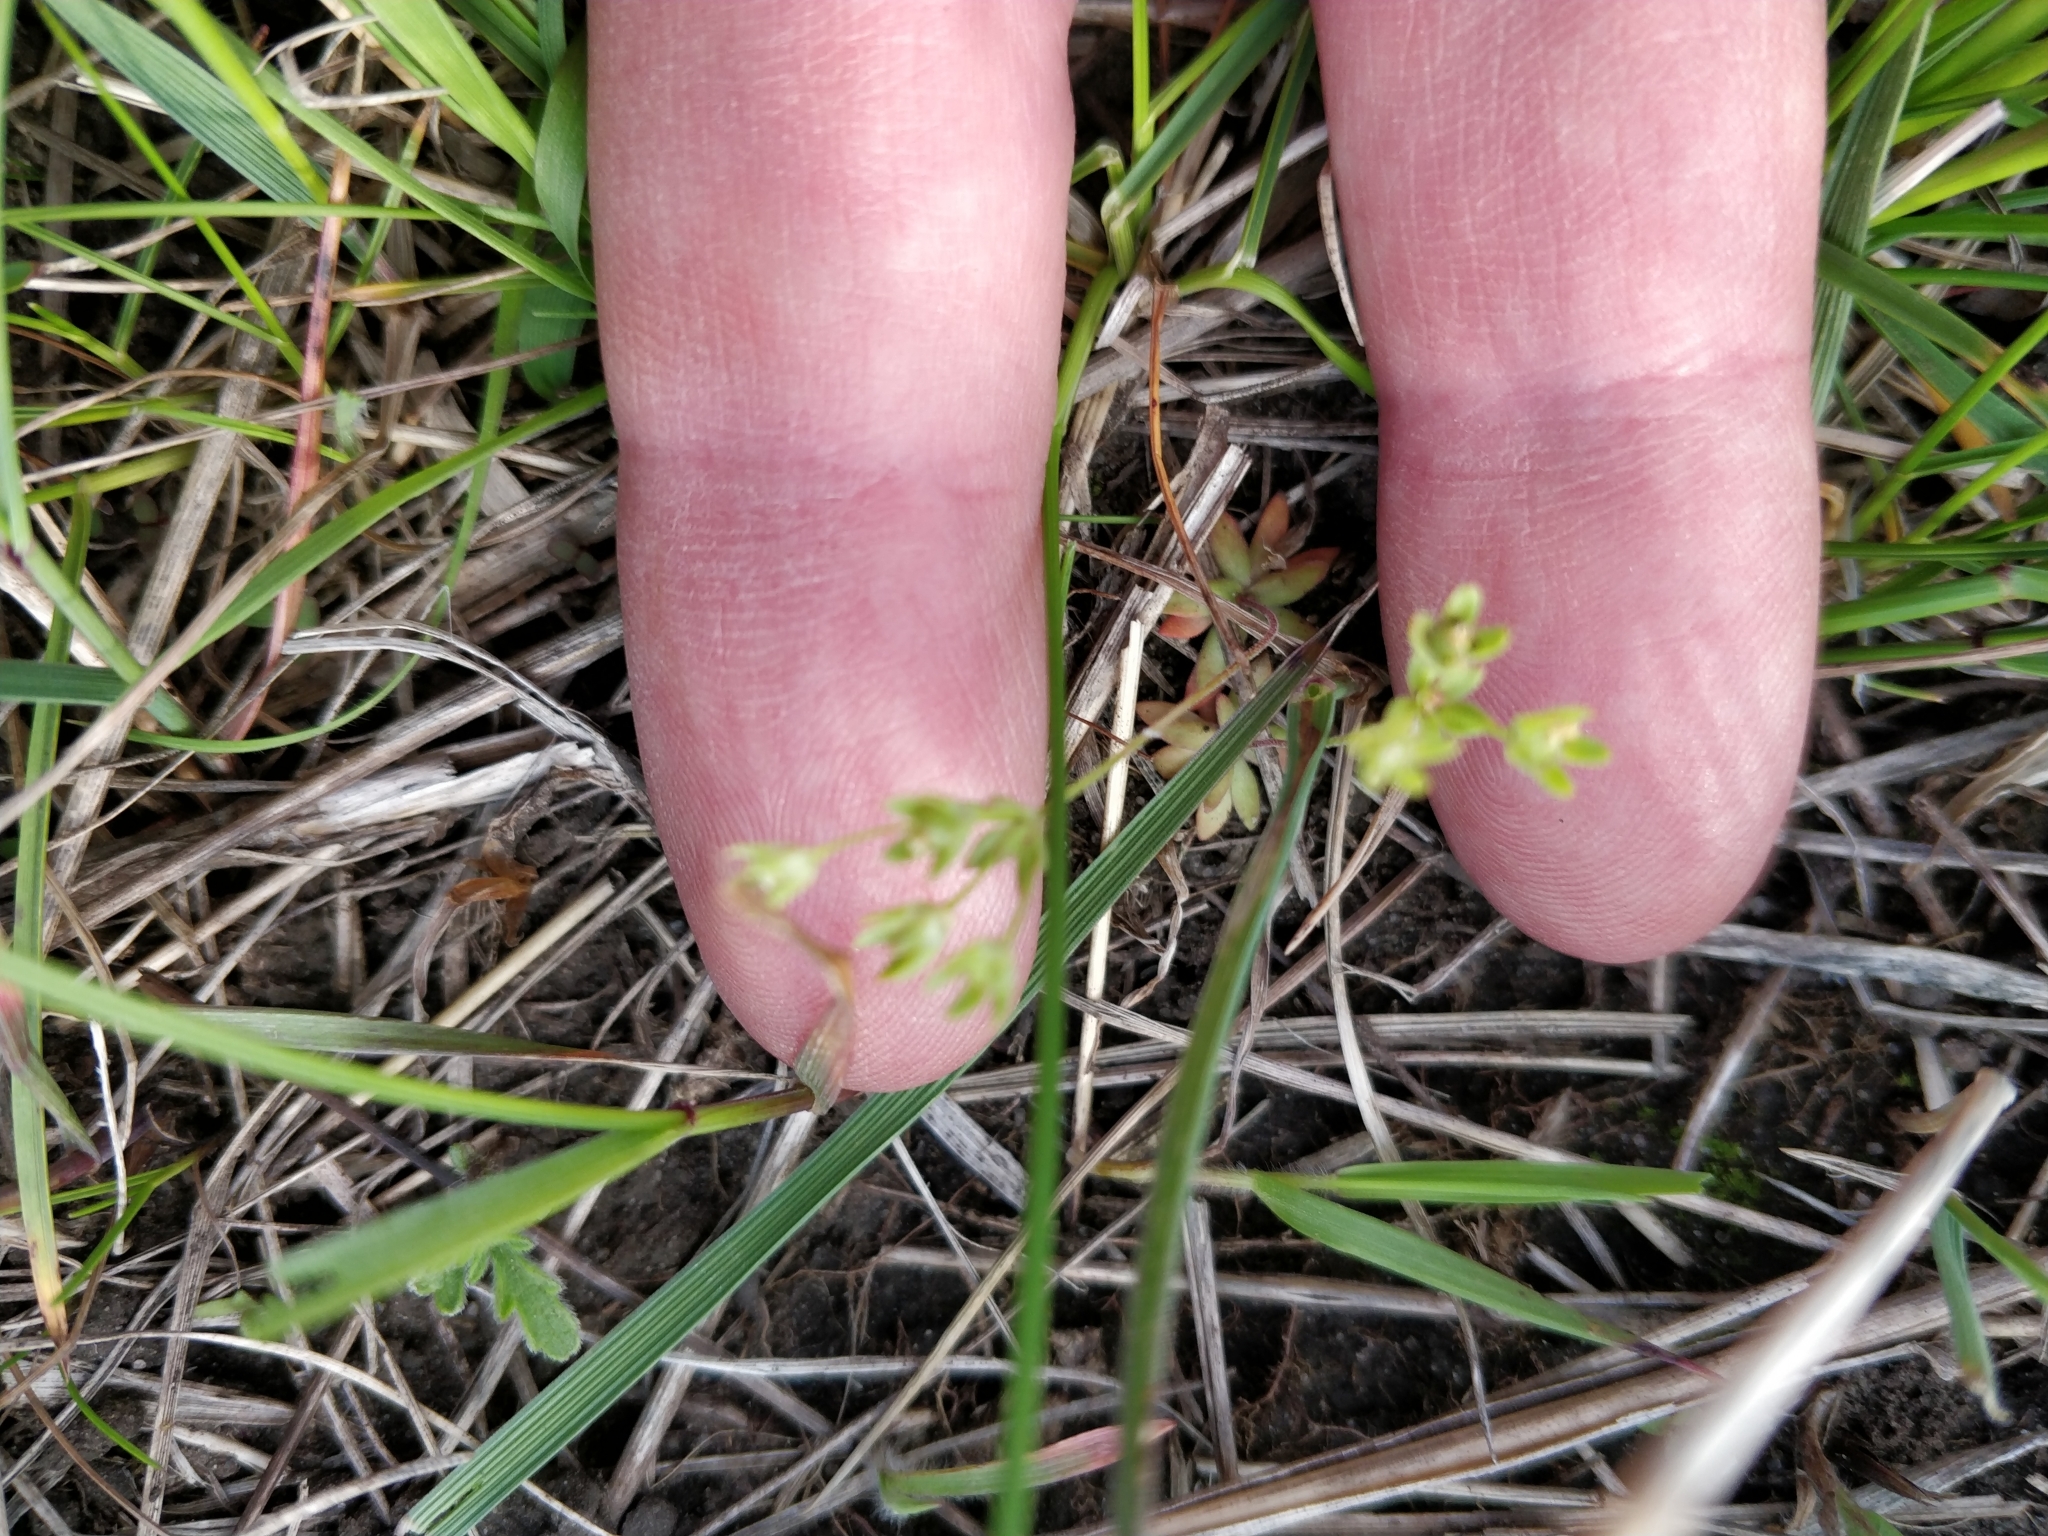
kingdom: Plantae
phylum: Tracheophyta
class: Magnoliopsida
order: Ericales
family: Primulaceae
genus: Androsace
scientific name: Androsace occidentalis
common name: West rock-jasmine
